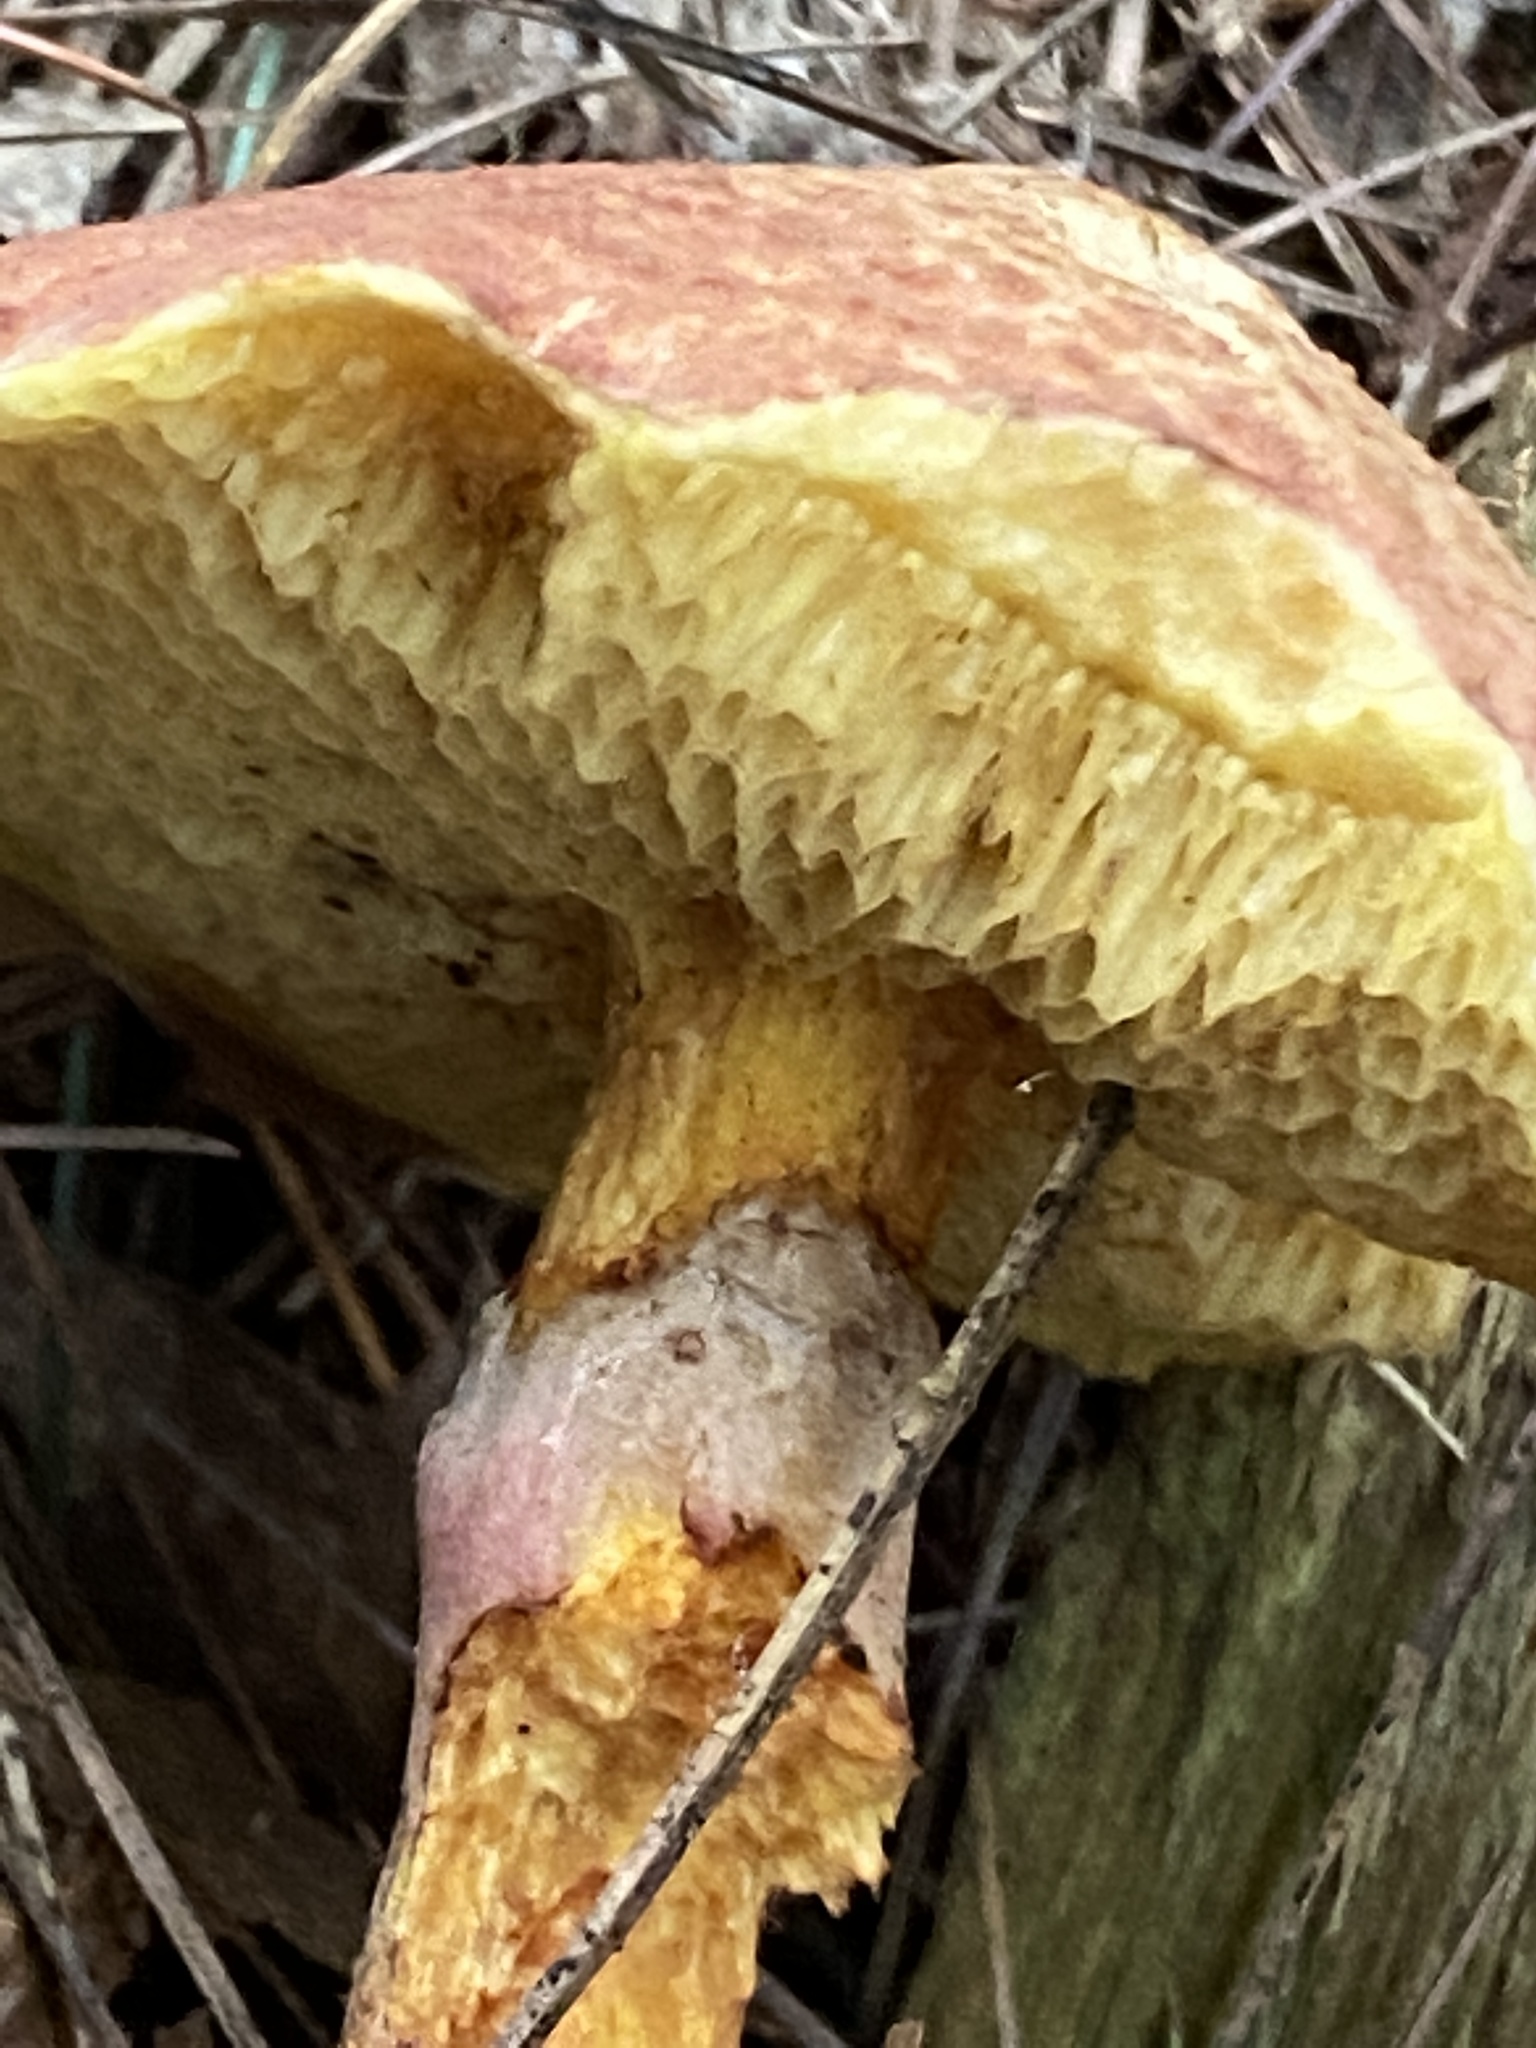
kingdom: Fungi
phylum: Basidiomycota
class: Agaricomycetes
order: Boletales
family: Suillaceae
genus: Suillus
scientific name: Suillus spraguei
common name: Painted suillus
